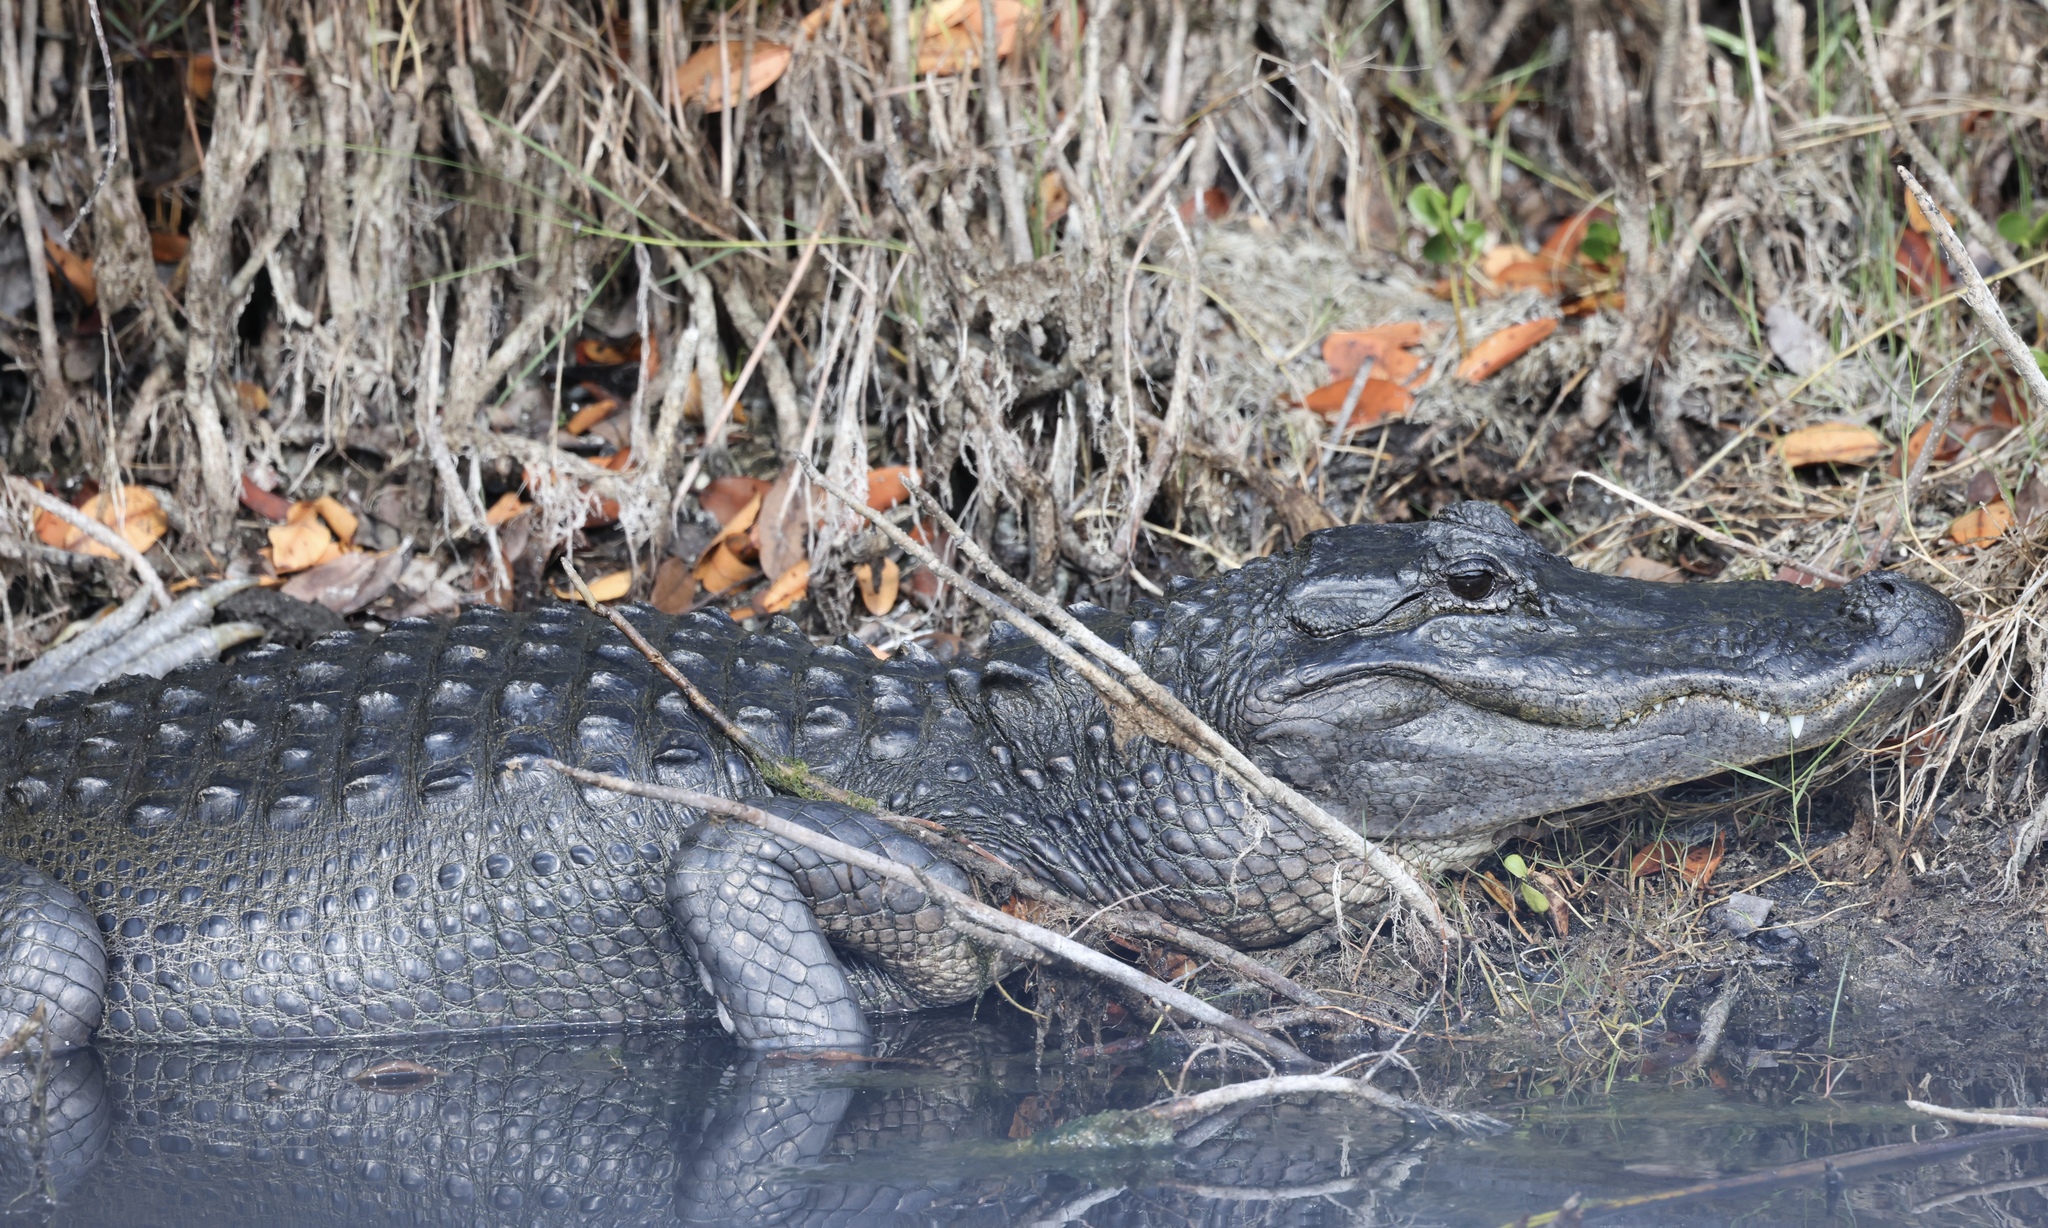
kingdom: Animalia
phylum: Chordata
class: Crocodylia
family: Alligatoridae
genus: Alligator
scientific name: Alligator mississippiensis
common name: American alligator
